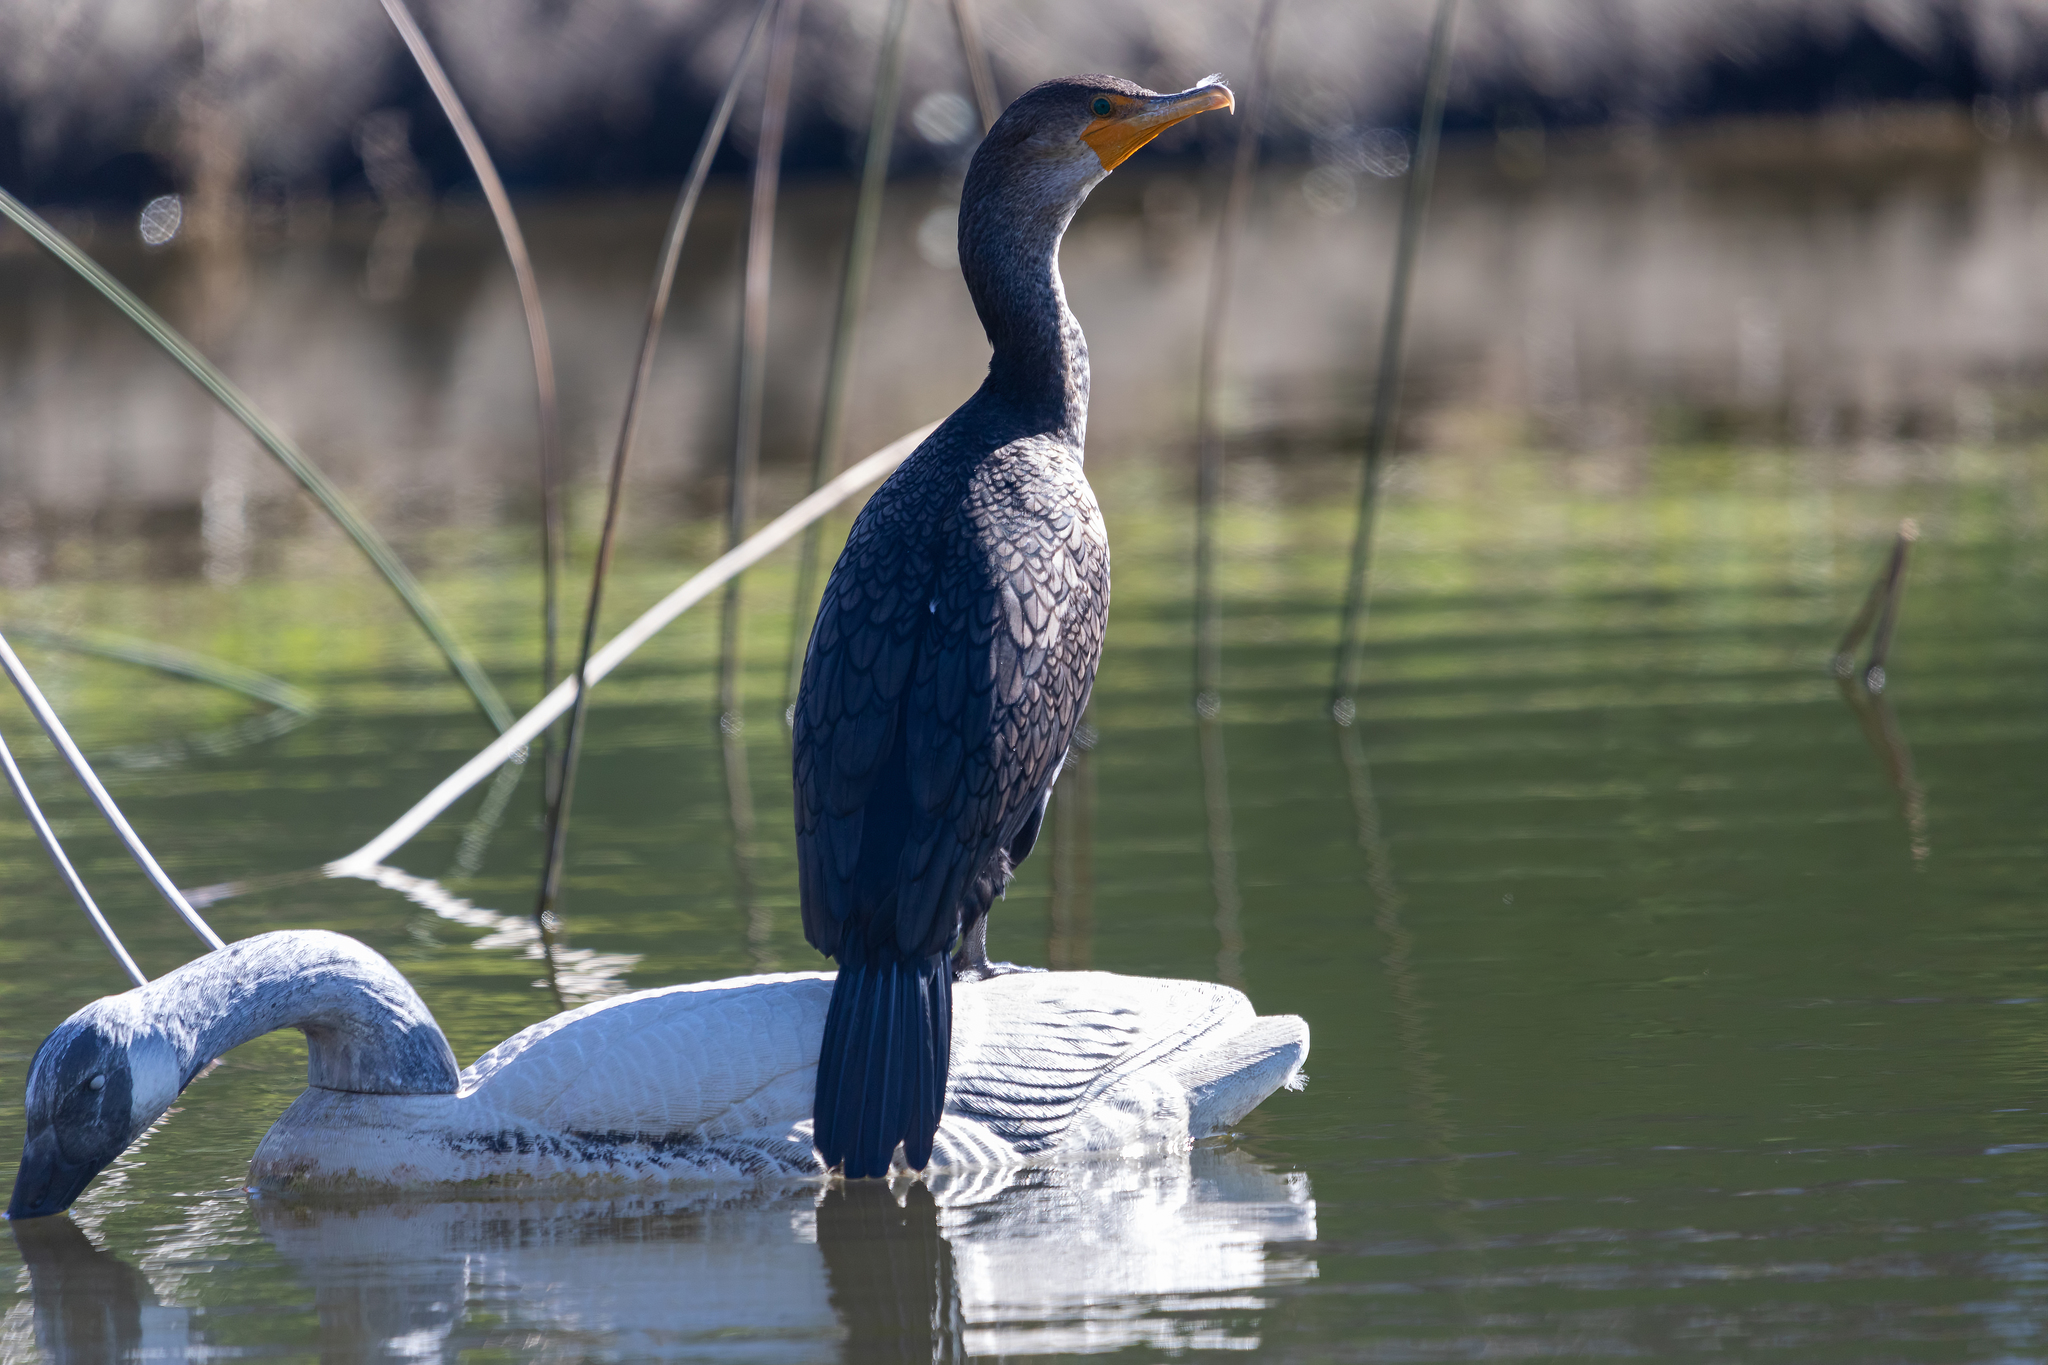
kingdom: Animalia
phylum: Chordata
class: Aves
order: Suliformes
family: Phalacrocoracidae
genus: Phalacrocorax
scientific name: Phalacrocorax auritus
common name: Double-crested cormorant
